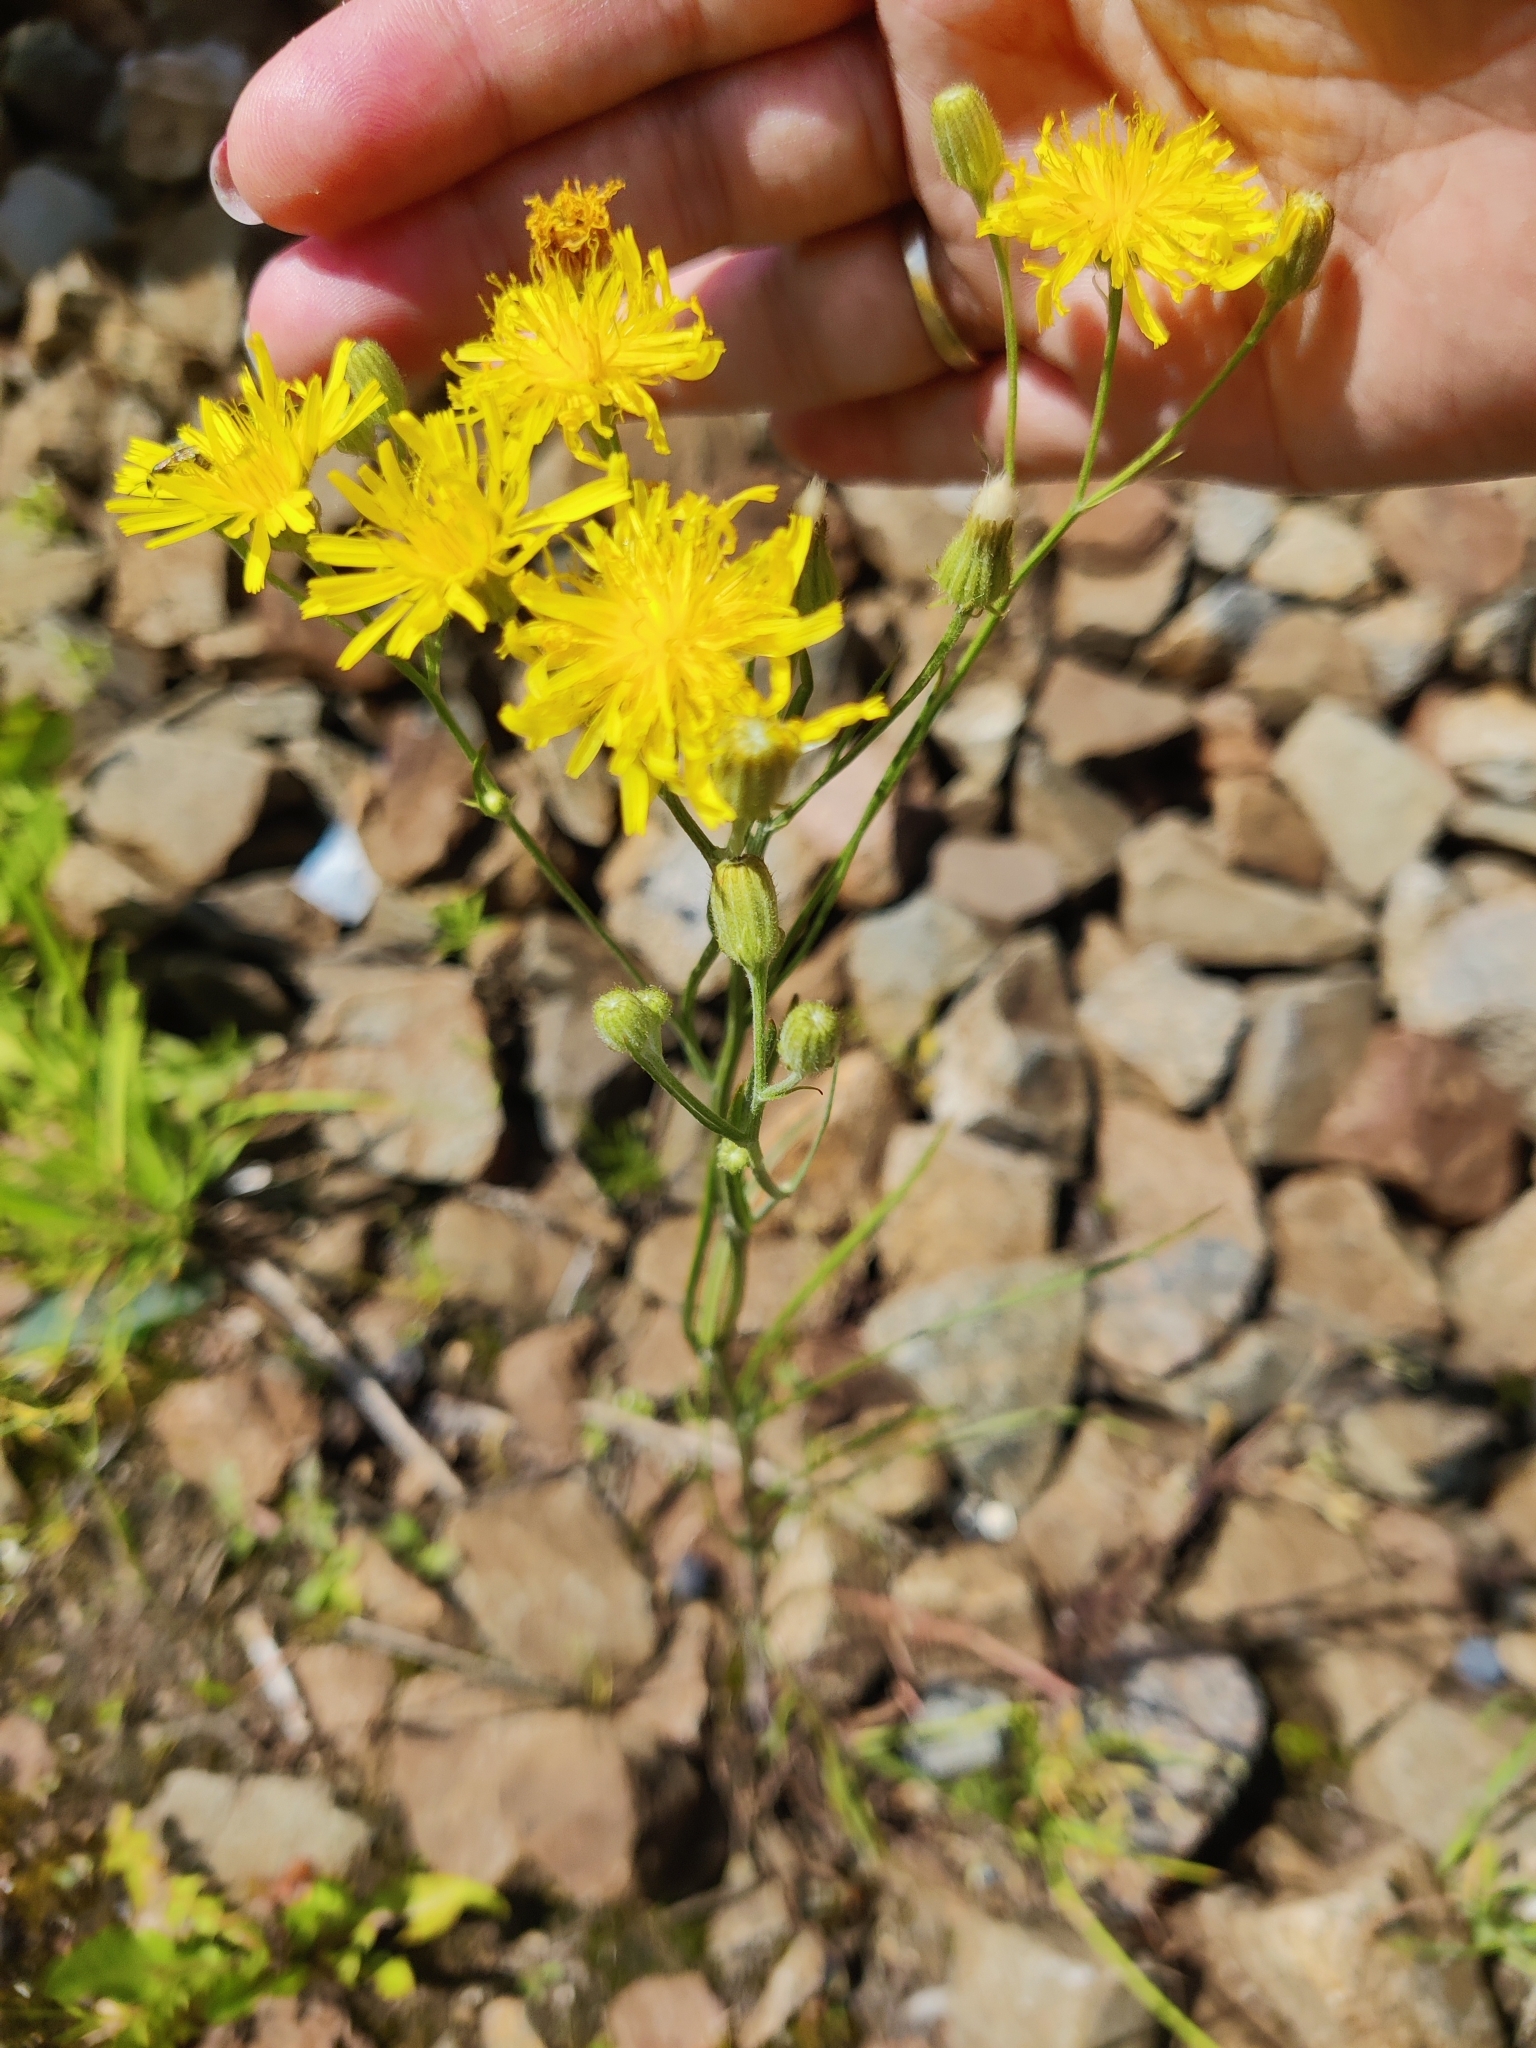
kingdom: Plantae
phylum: Tracheophyta
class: Magnoliopsida
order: Asterales
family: Asteraceae
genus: Crepis
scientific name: Crepis tectorum
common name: Narrow-leaved hawk's-beard
